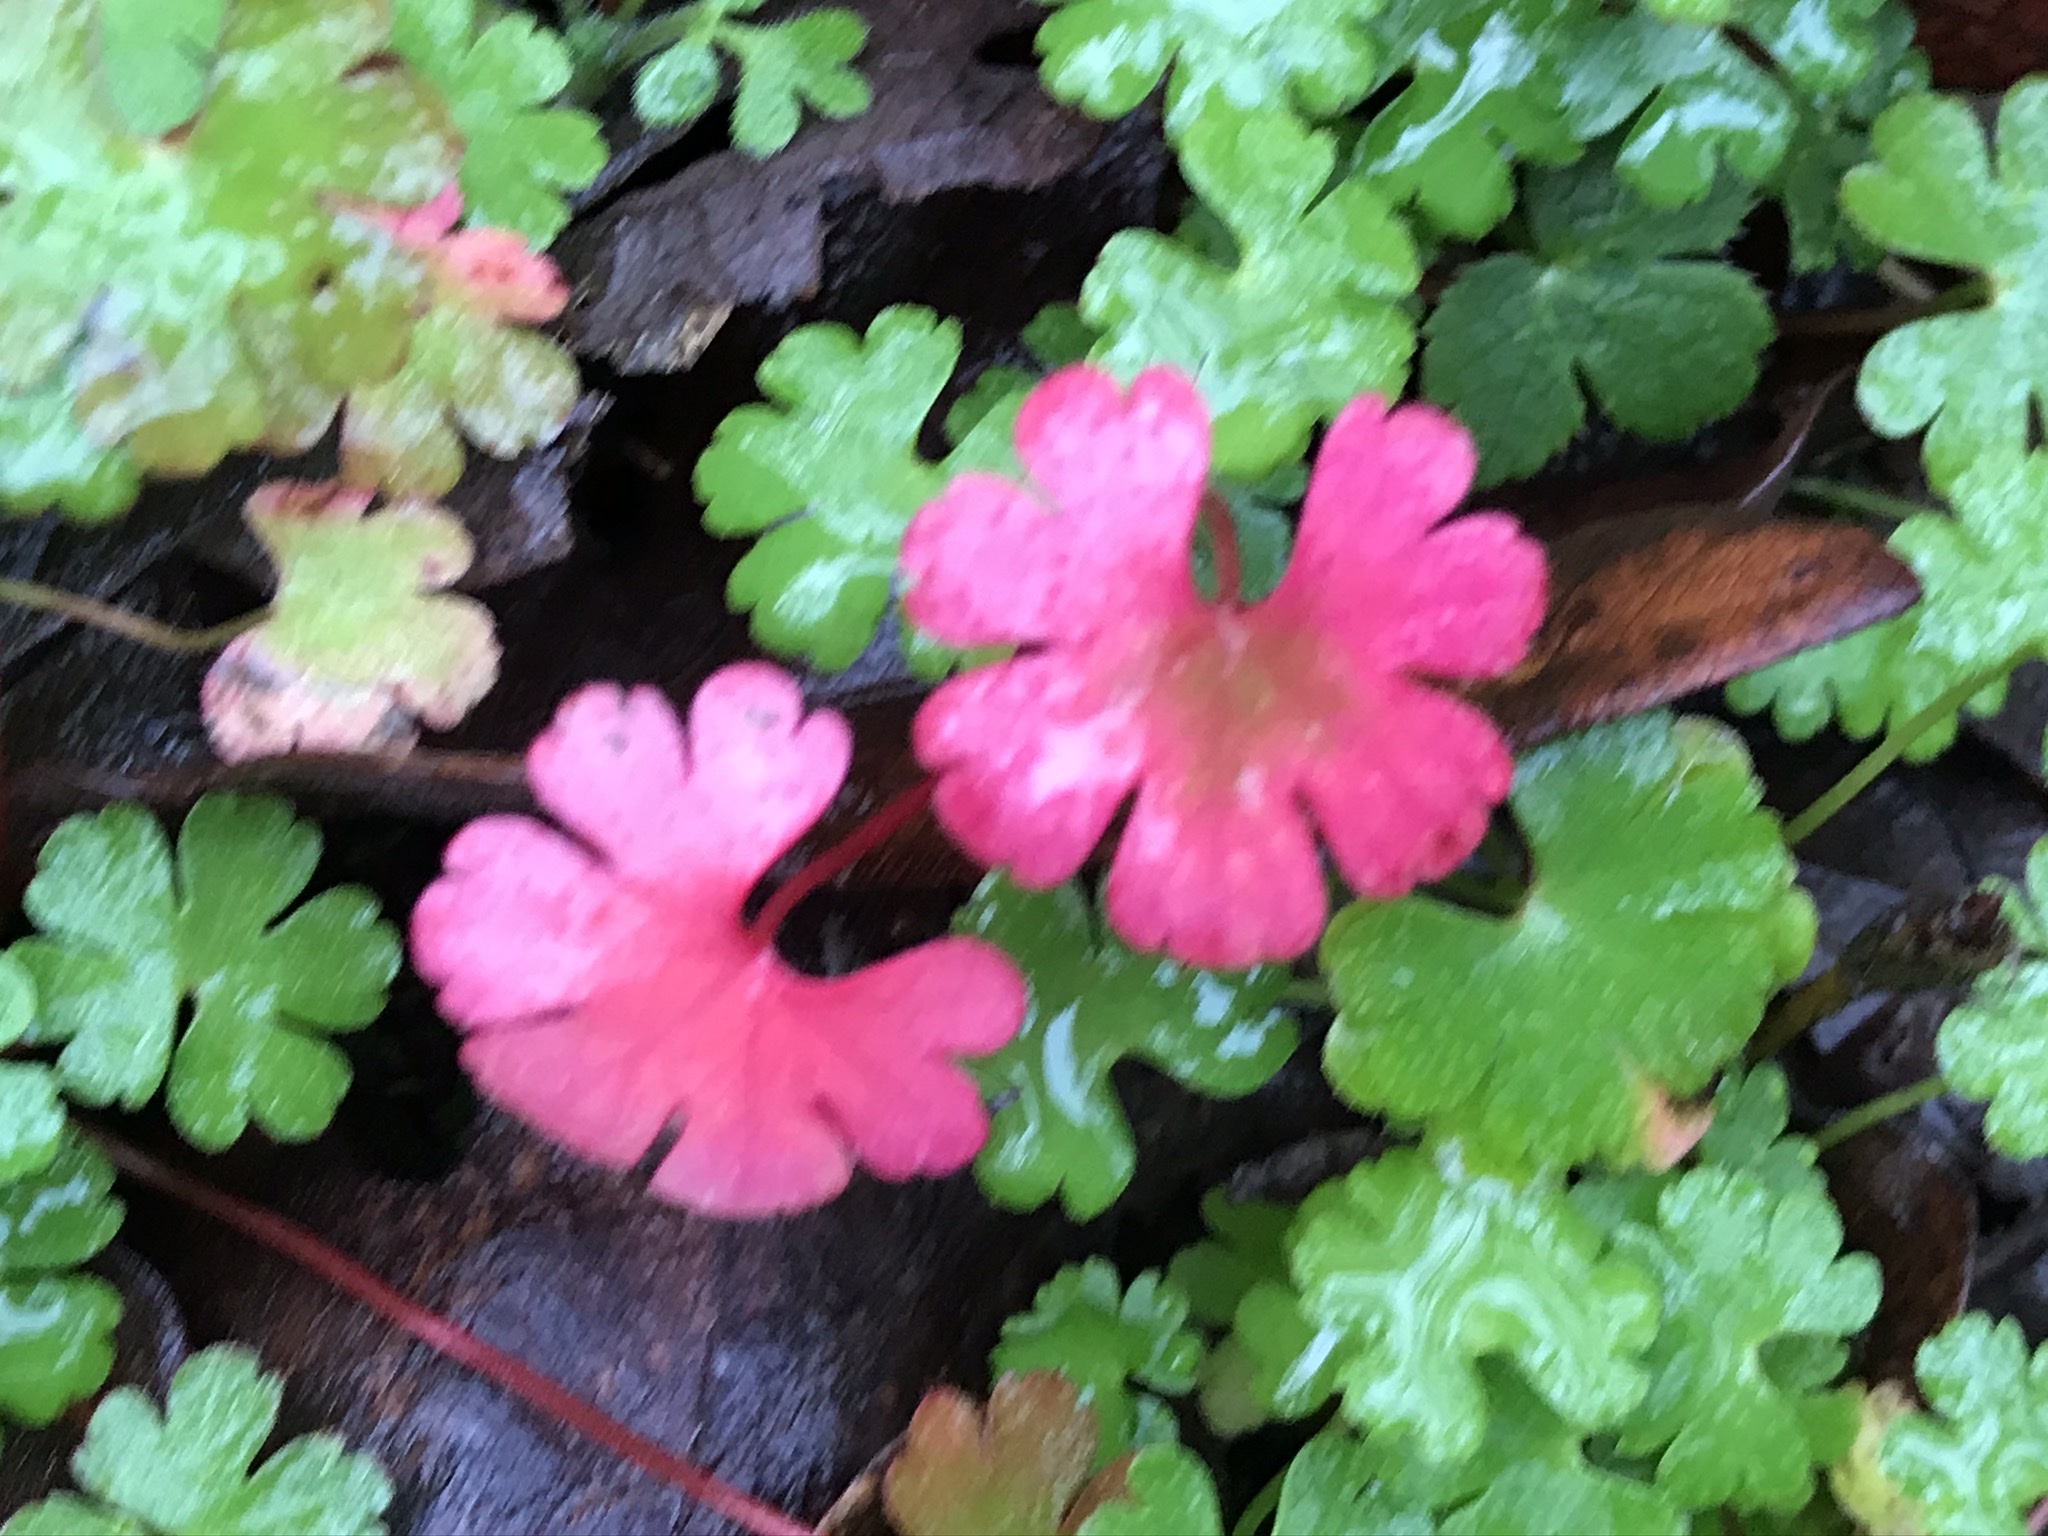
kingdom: Plantae
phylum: Tracheophyta
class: Magnoliopsida
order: Geraniales
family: Geraniaceae
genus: Geranium
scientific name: Geranium lucidum
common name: Shining crane's-bill
